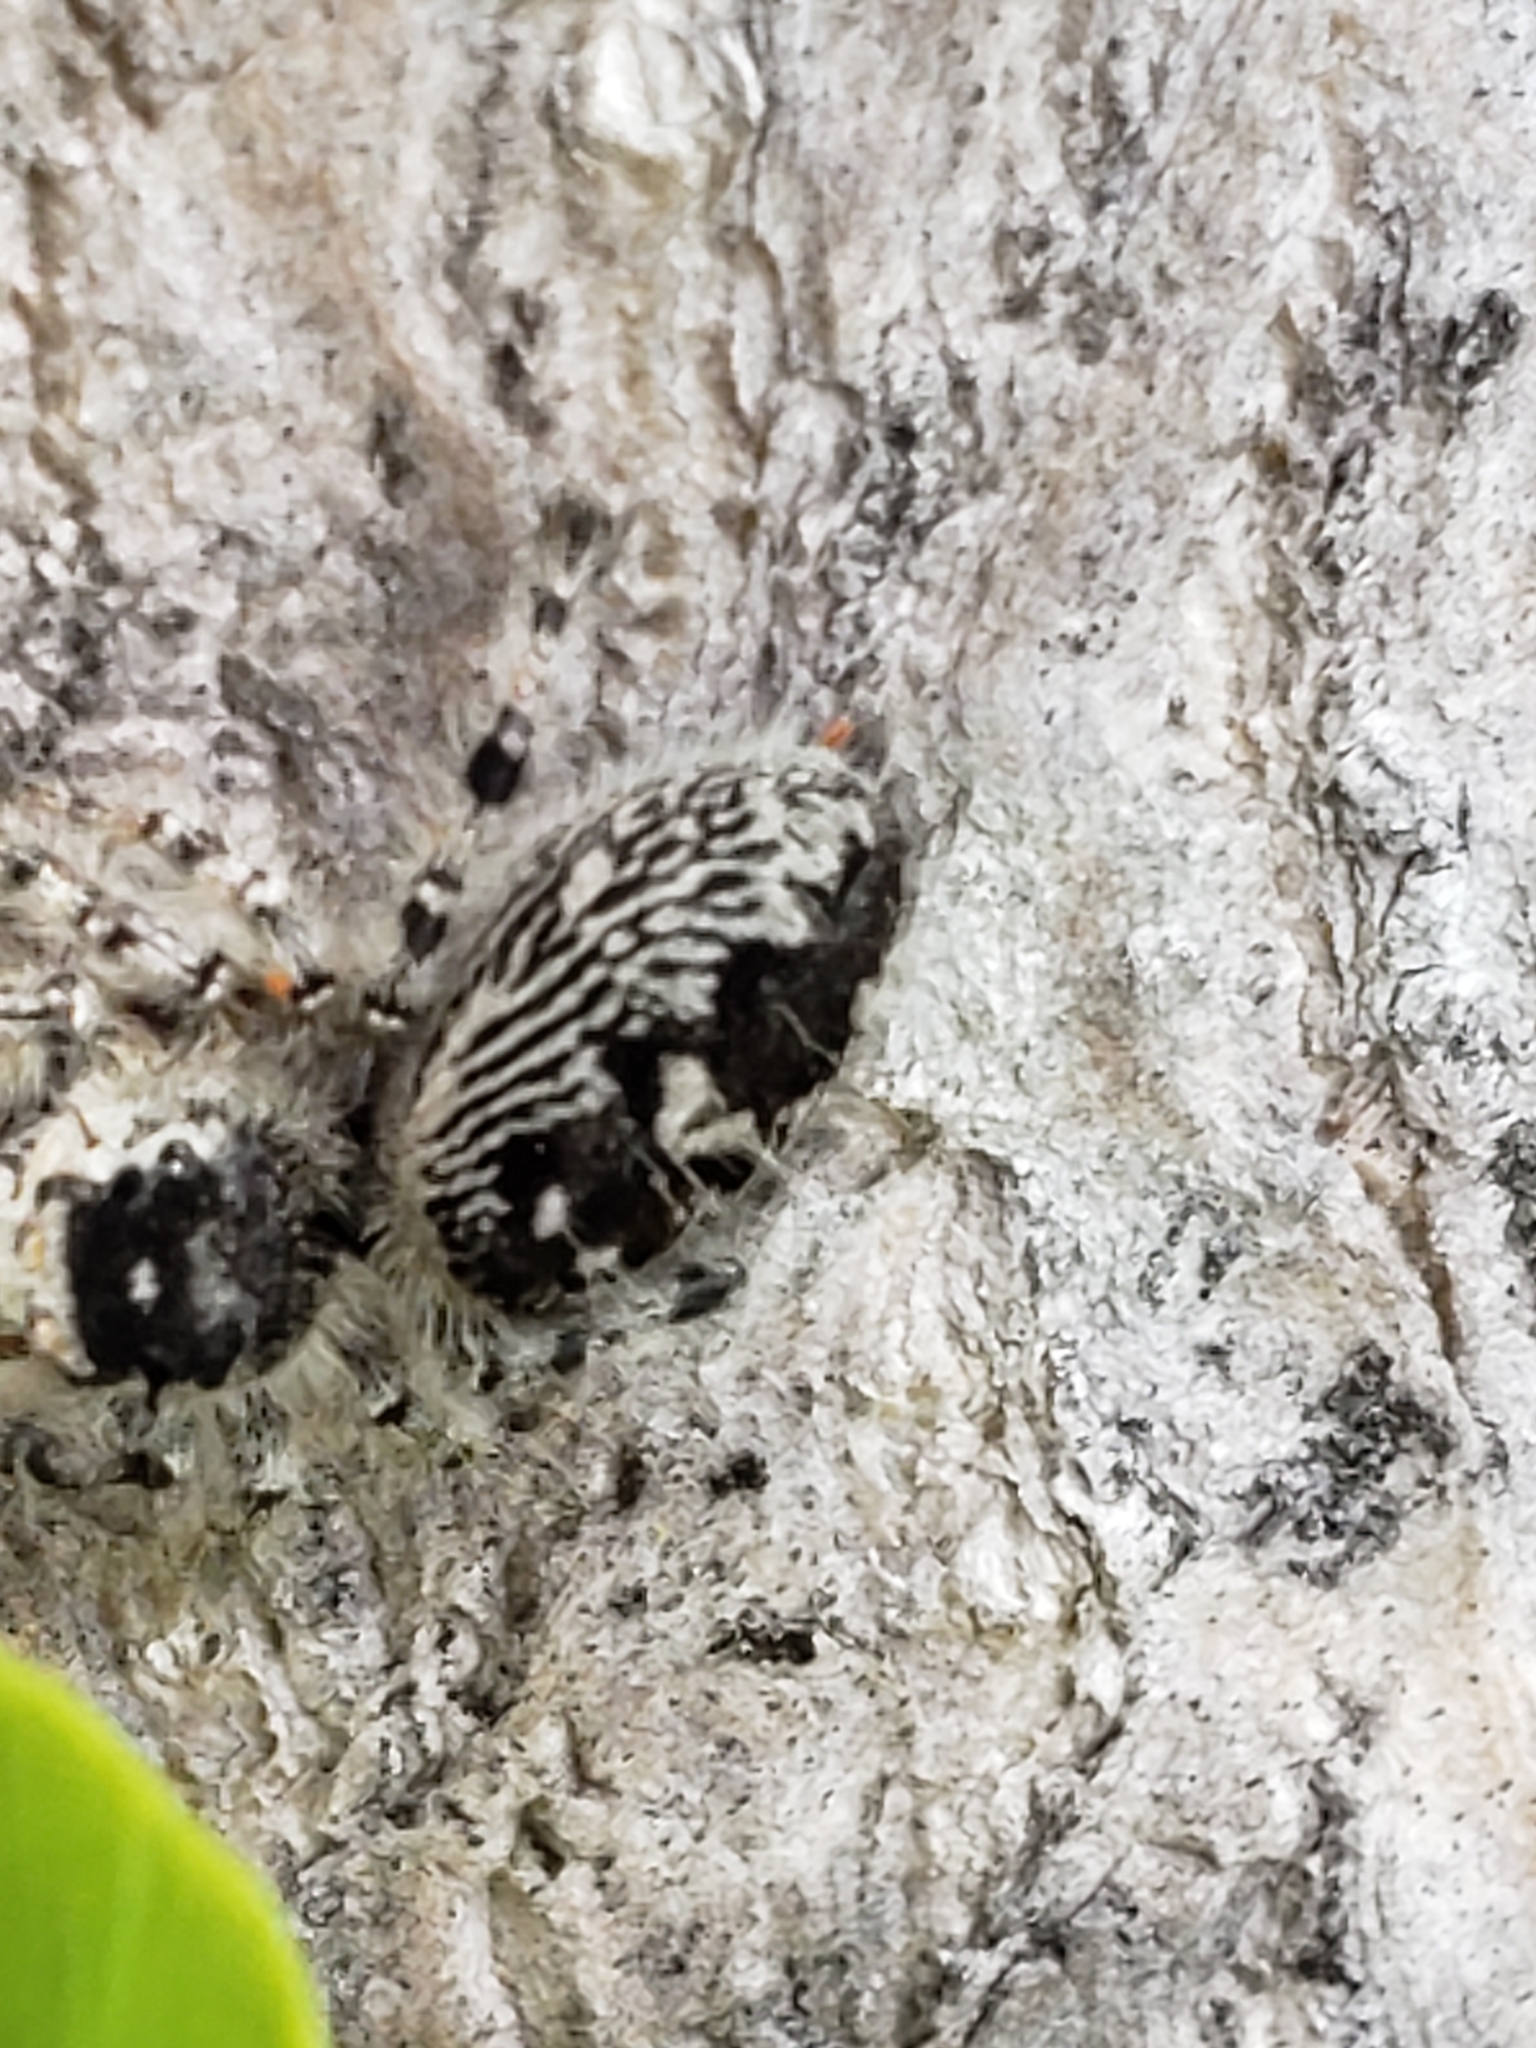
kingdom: Animalia
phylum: Arthropoda
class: Arachnida
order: Araneae
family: Salticidae
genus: Phidippus
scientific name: Phidippus otiosus
